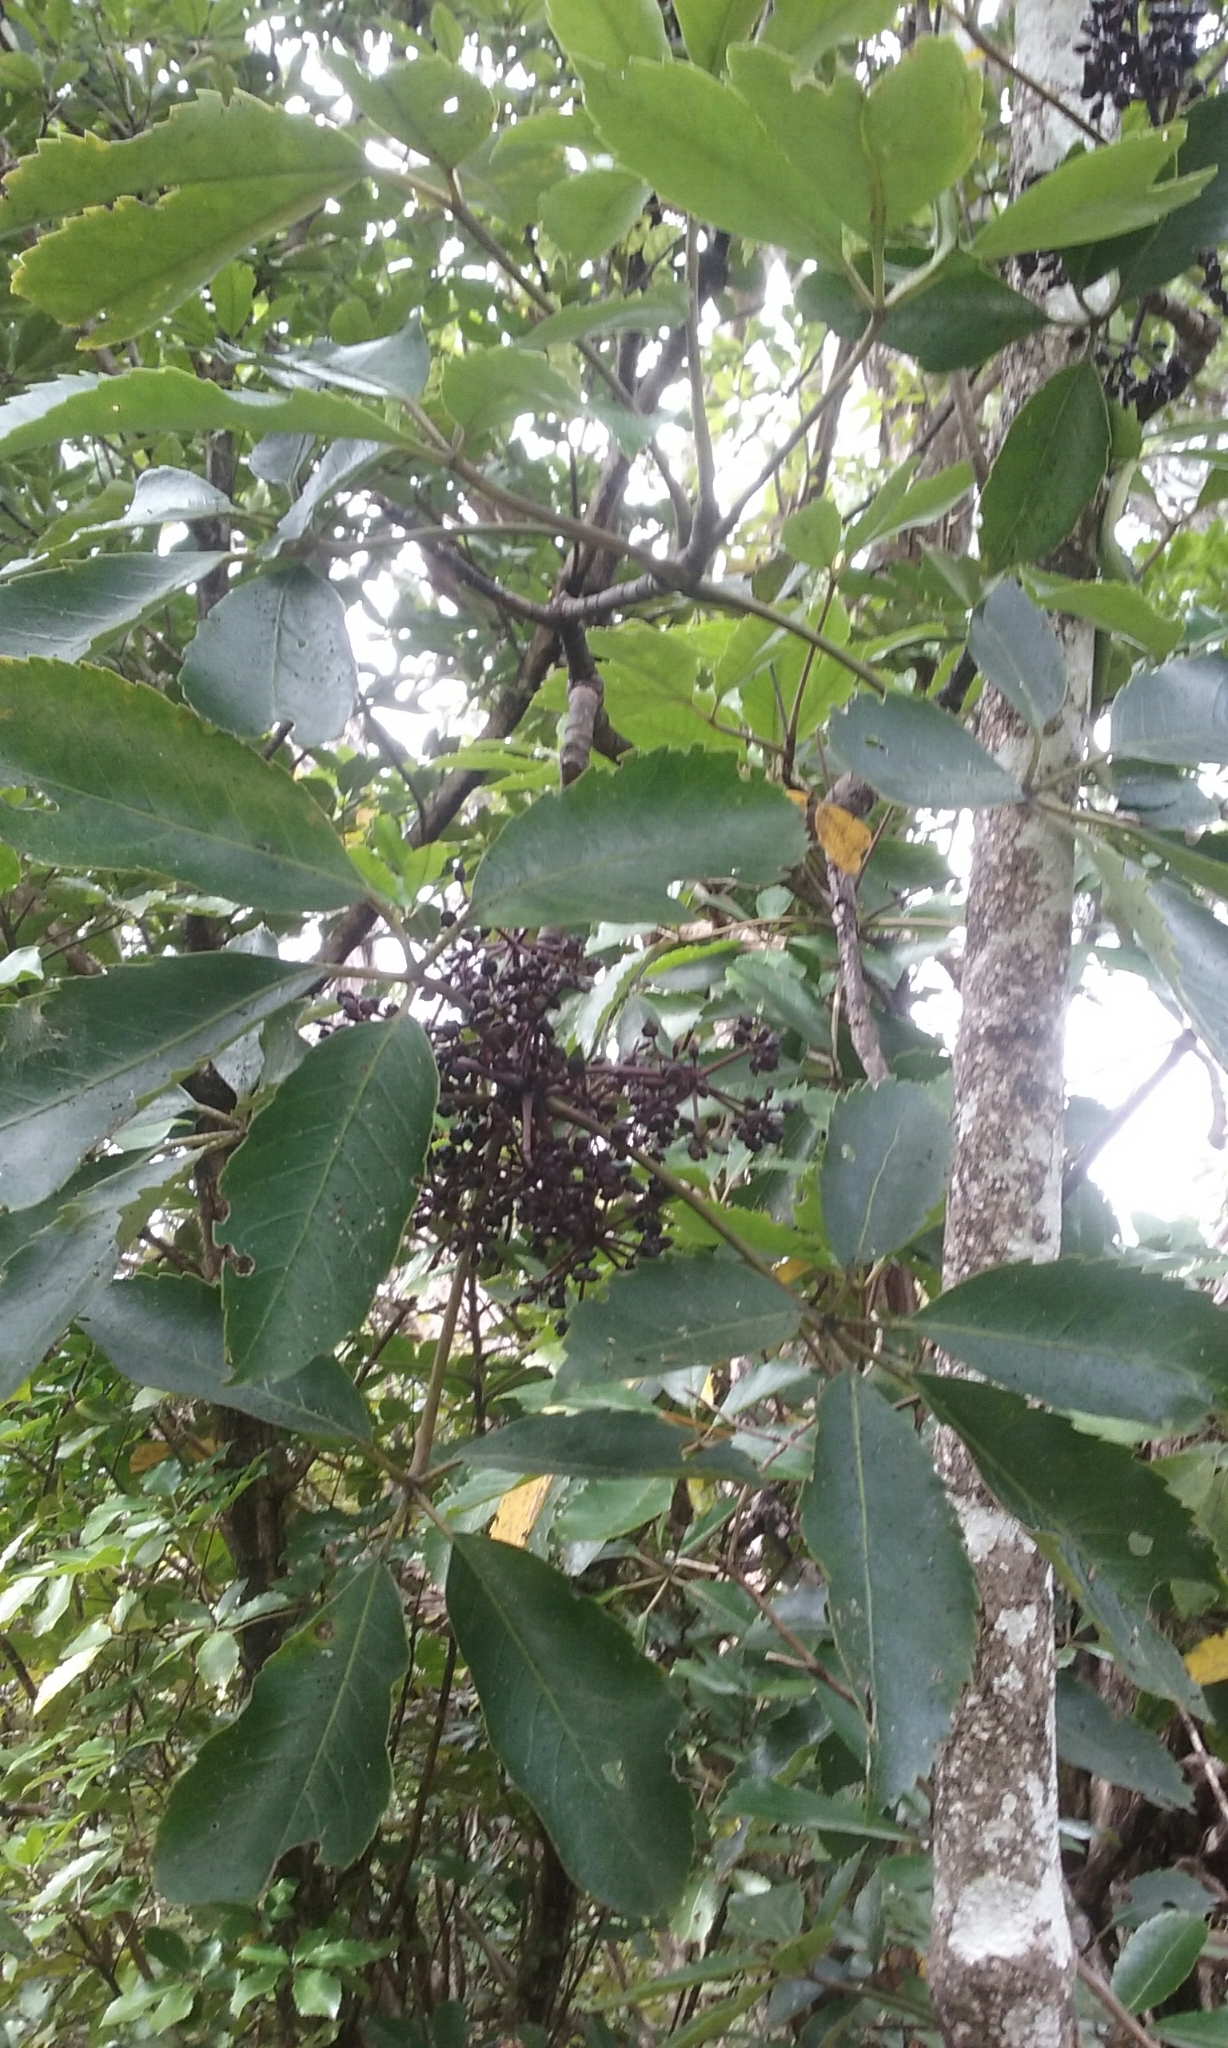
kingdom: Plantae
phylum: Tracheophyta
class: Magnoliopsida
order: Apiales
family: Araliaceae
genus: Neopanax
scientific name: Neopanax arboreus
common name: Five-fingers
